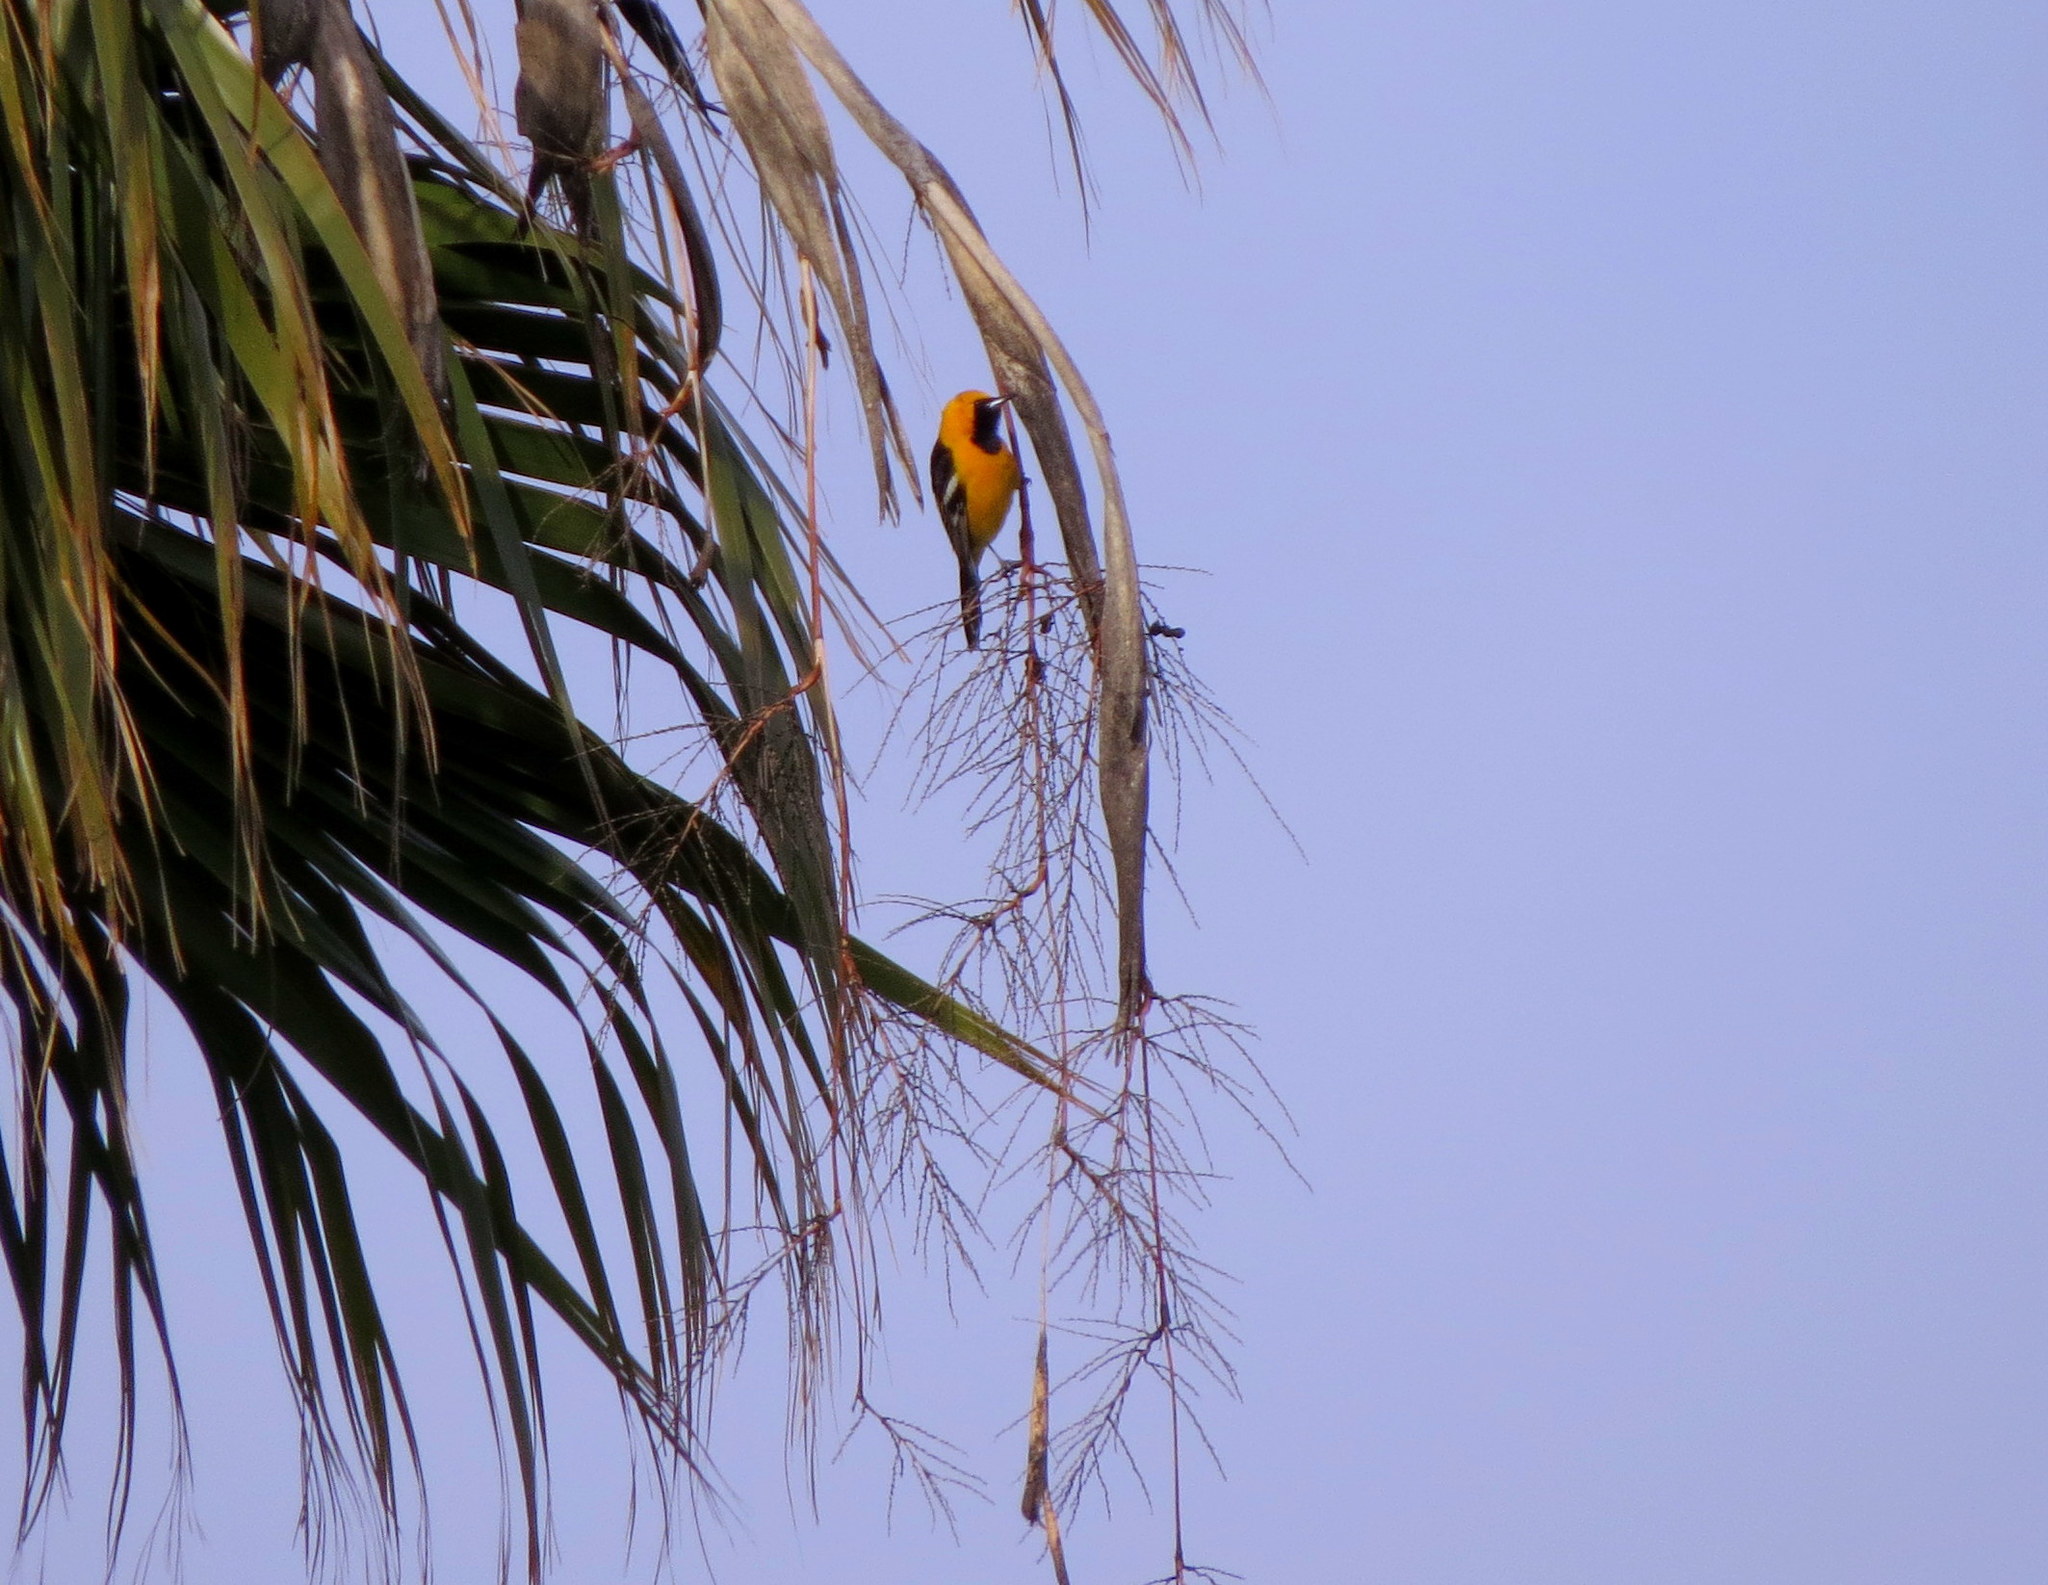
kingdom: Animalia
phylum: Chordata
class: Aves
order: Passeriformes
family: Icteridae
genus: Icterus
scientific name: Icterus cucullatus
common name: Hooded oriole
